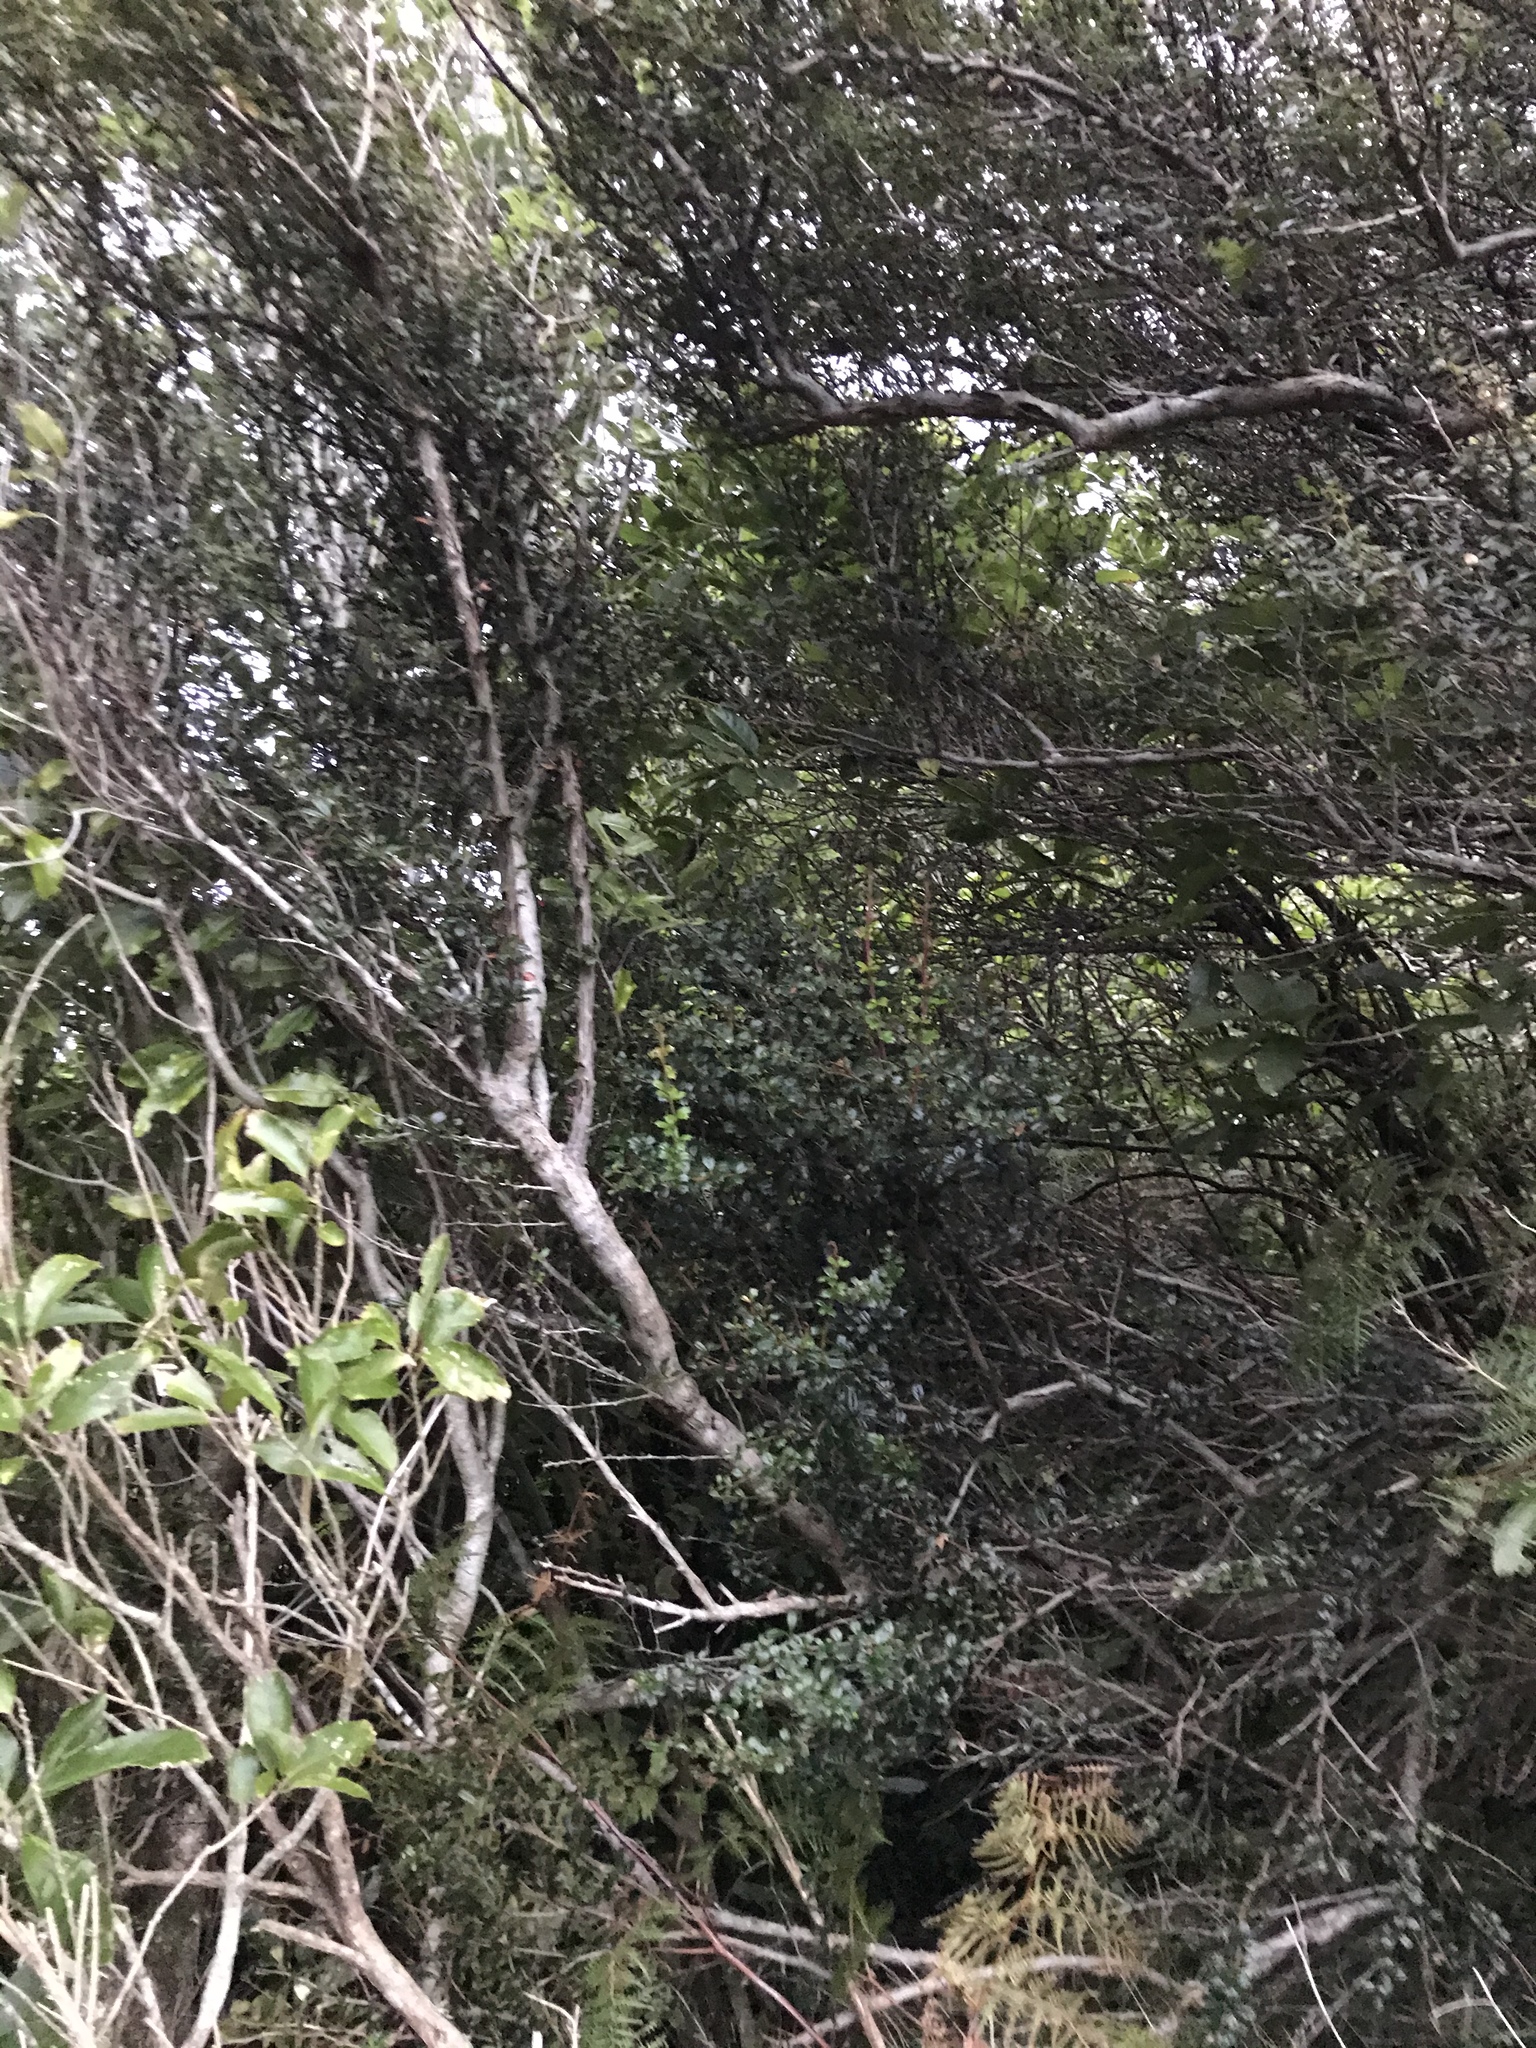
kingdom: Plantae
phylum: Tracheophyta
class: Magnoliopsida
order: Ranunculales
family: Berberidaceae
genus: Berberis
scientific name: Berberis darwinii
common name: Darwin's barberry
